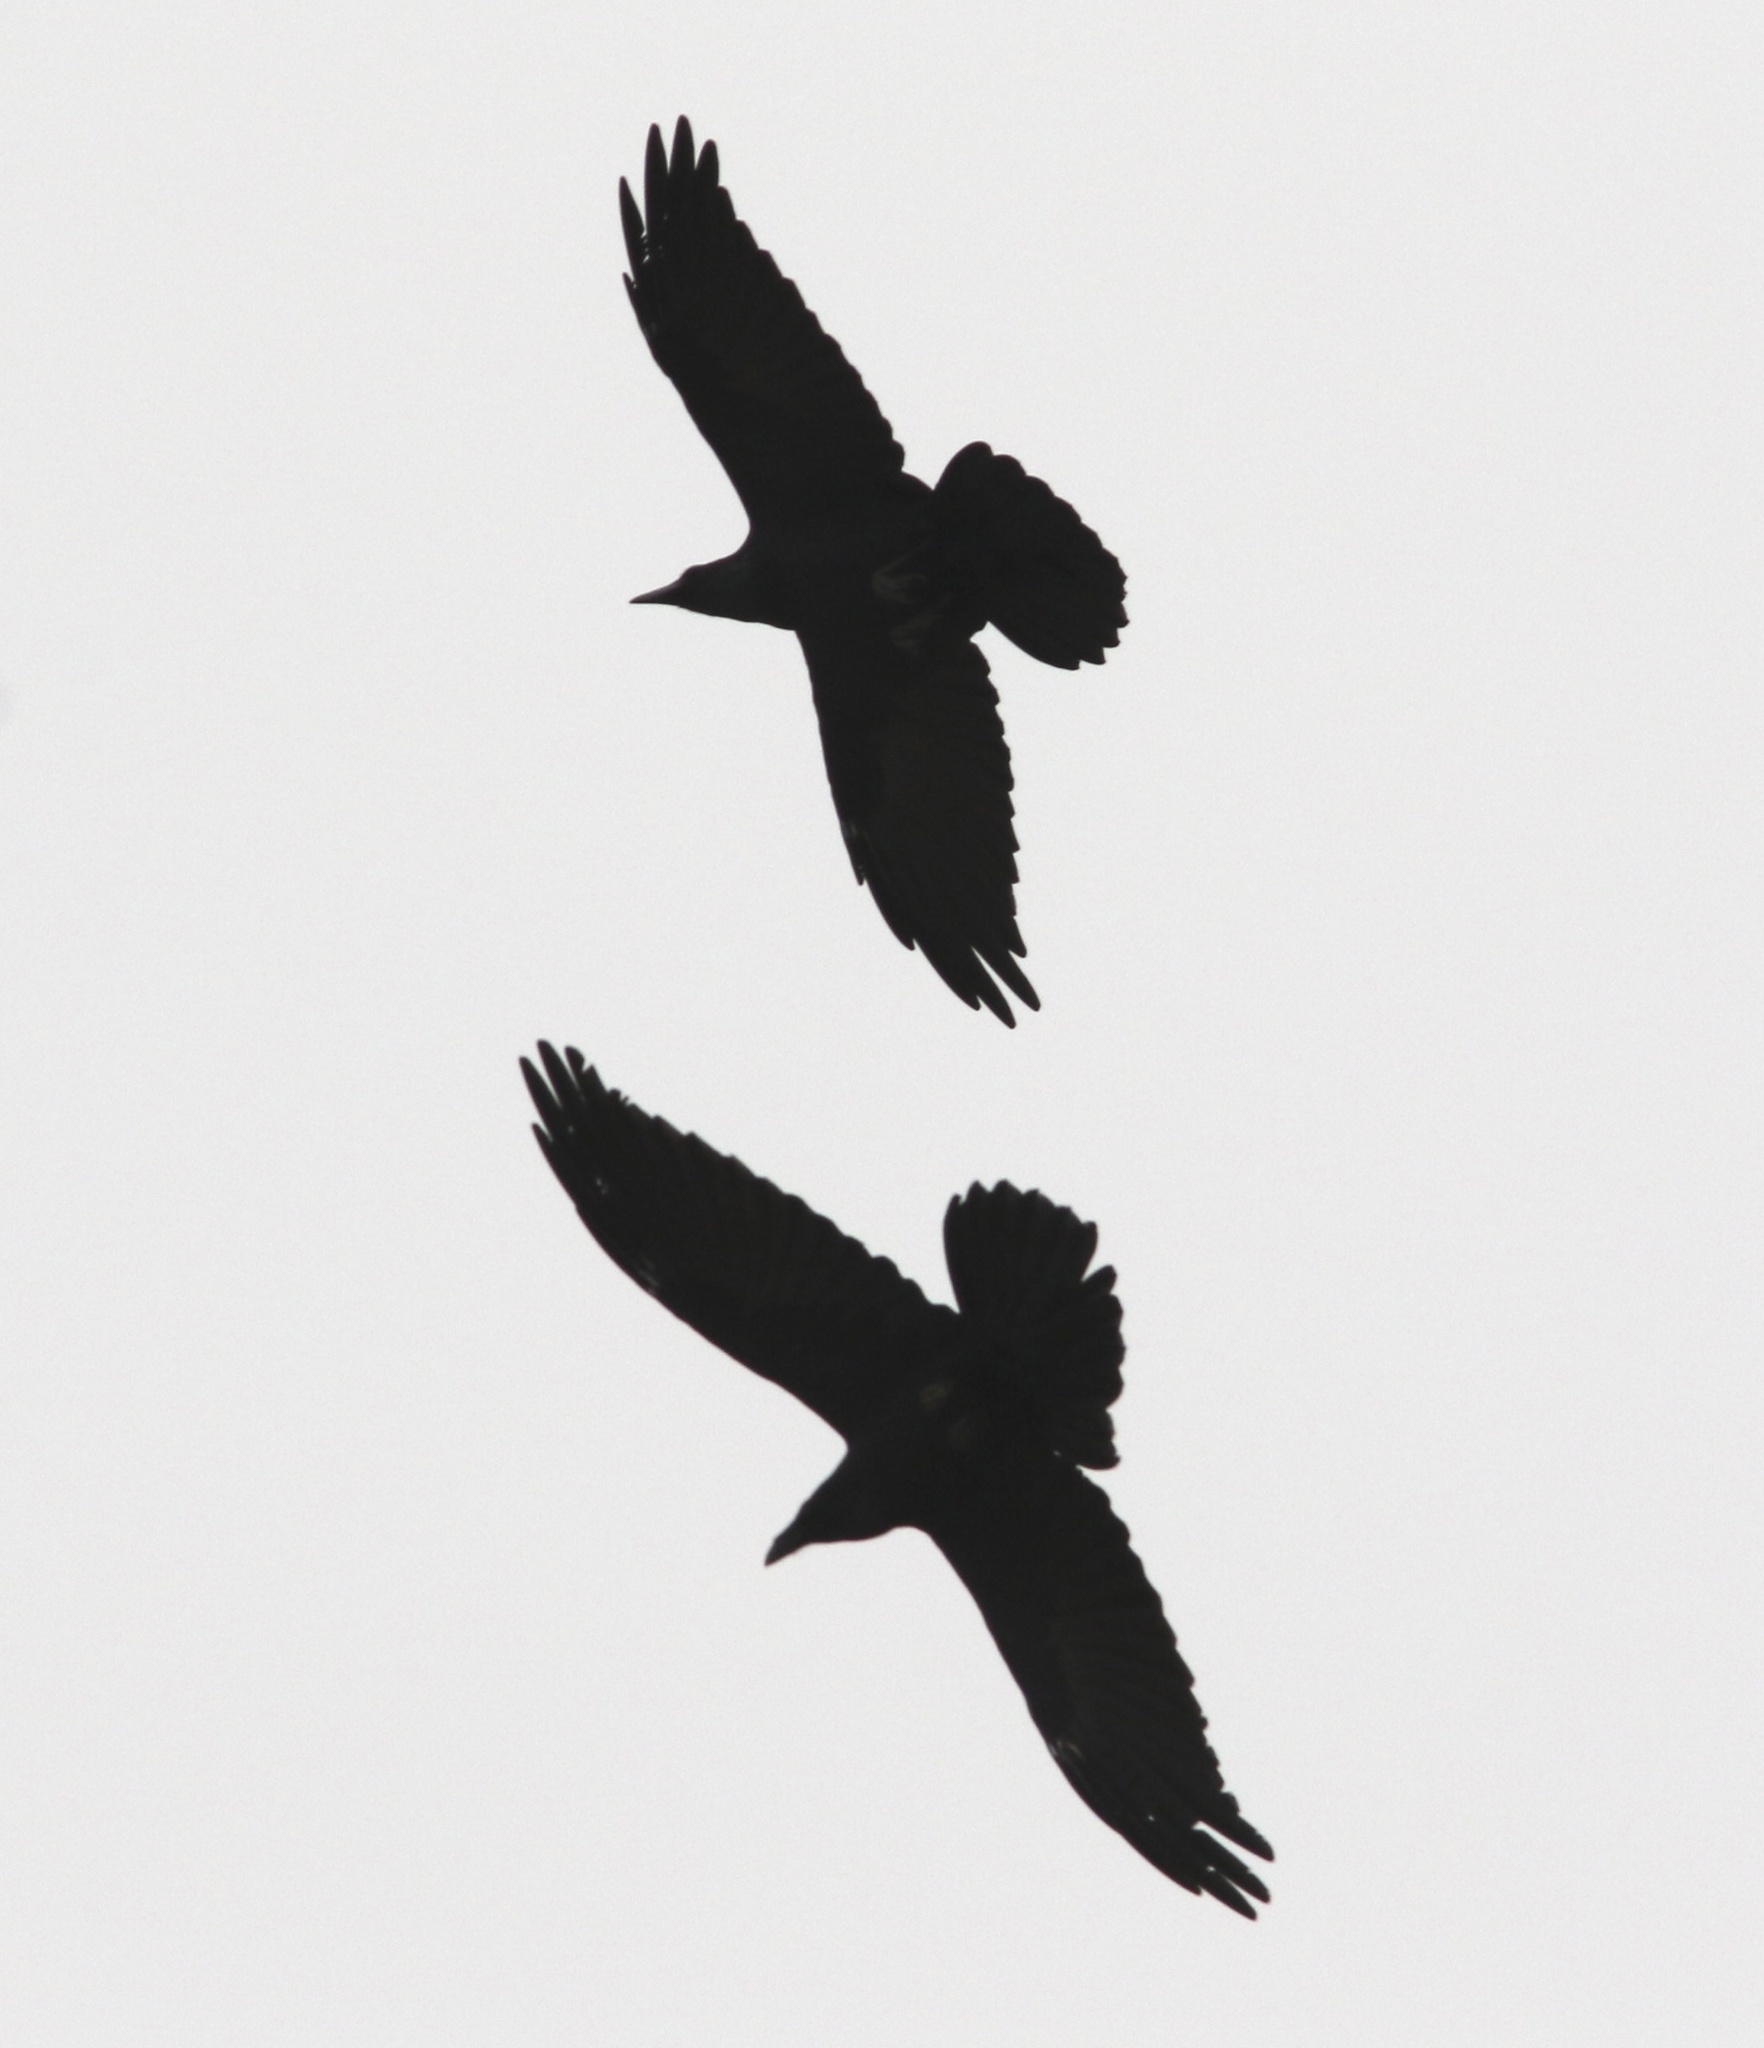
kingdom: Animalia
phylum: Chordata
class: Aves
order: Passeriformes
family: Corvidae
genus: Corvus
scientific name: Corvus corax
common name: Common raven
